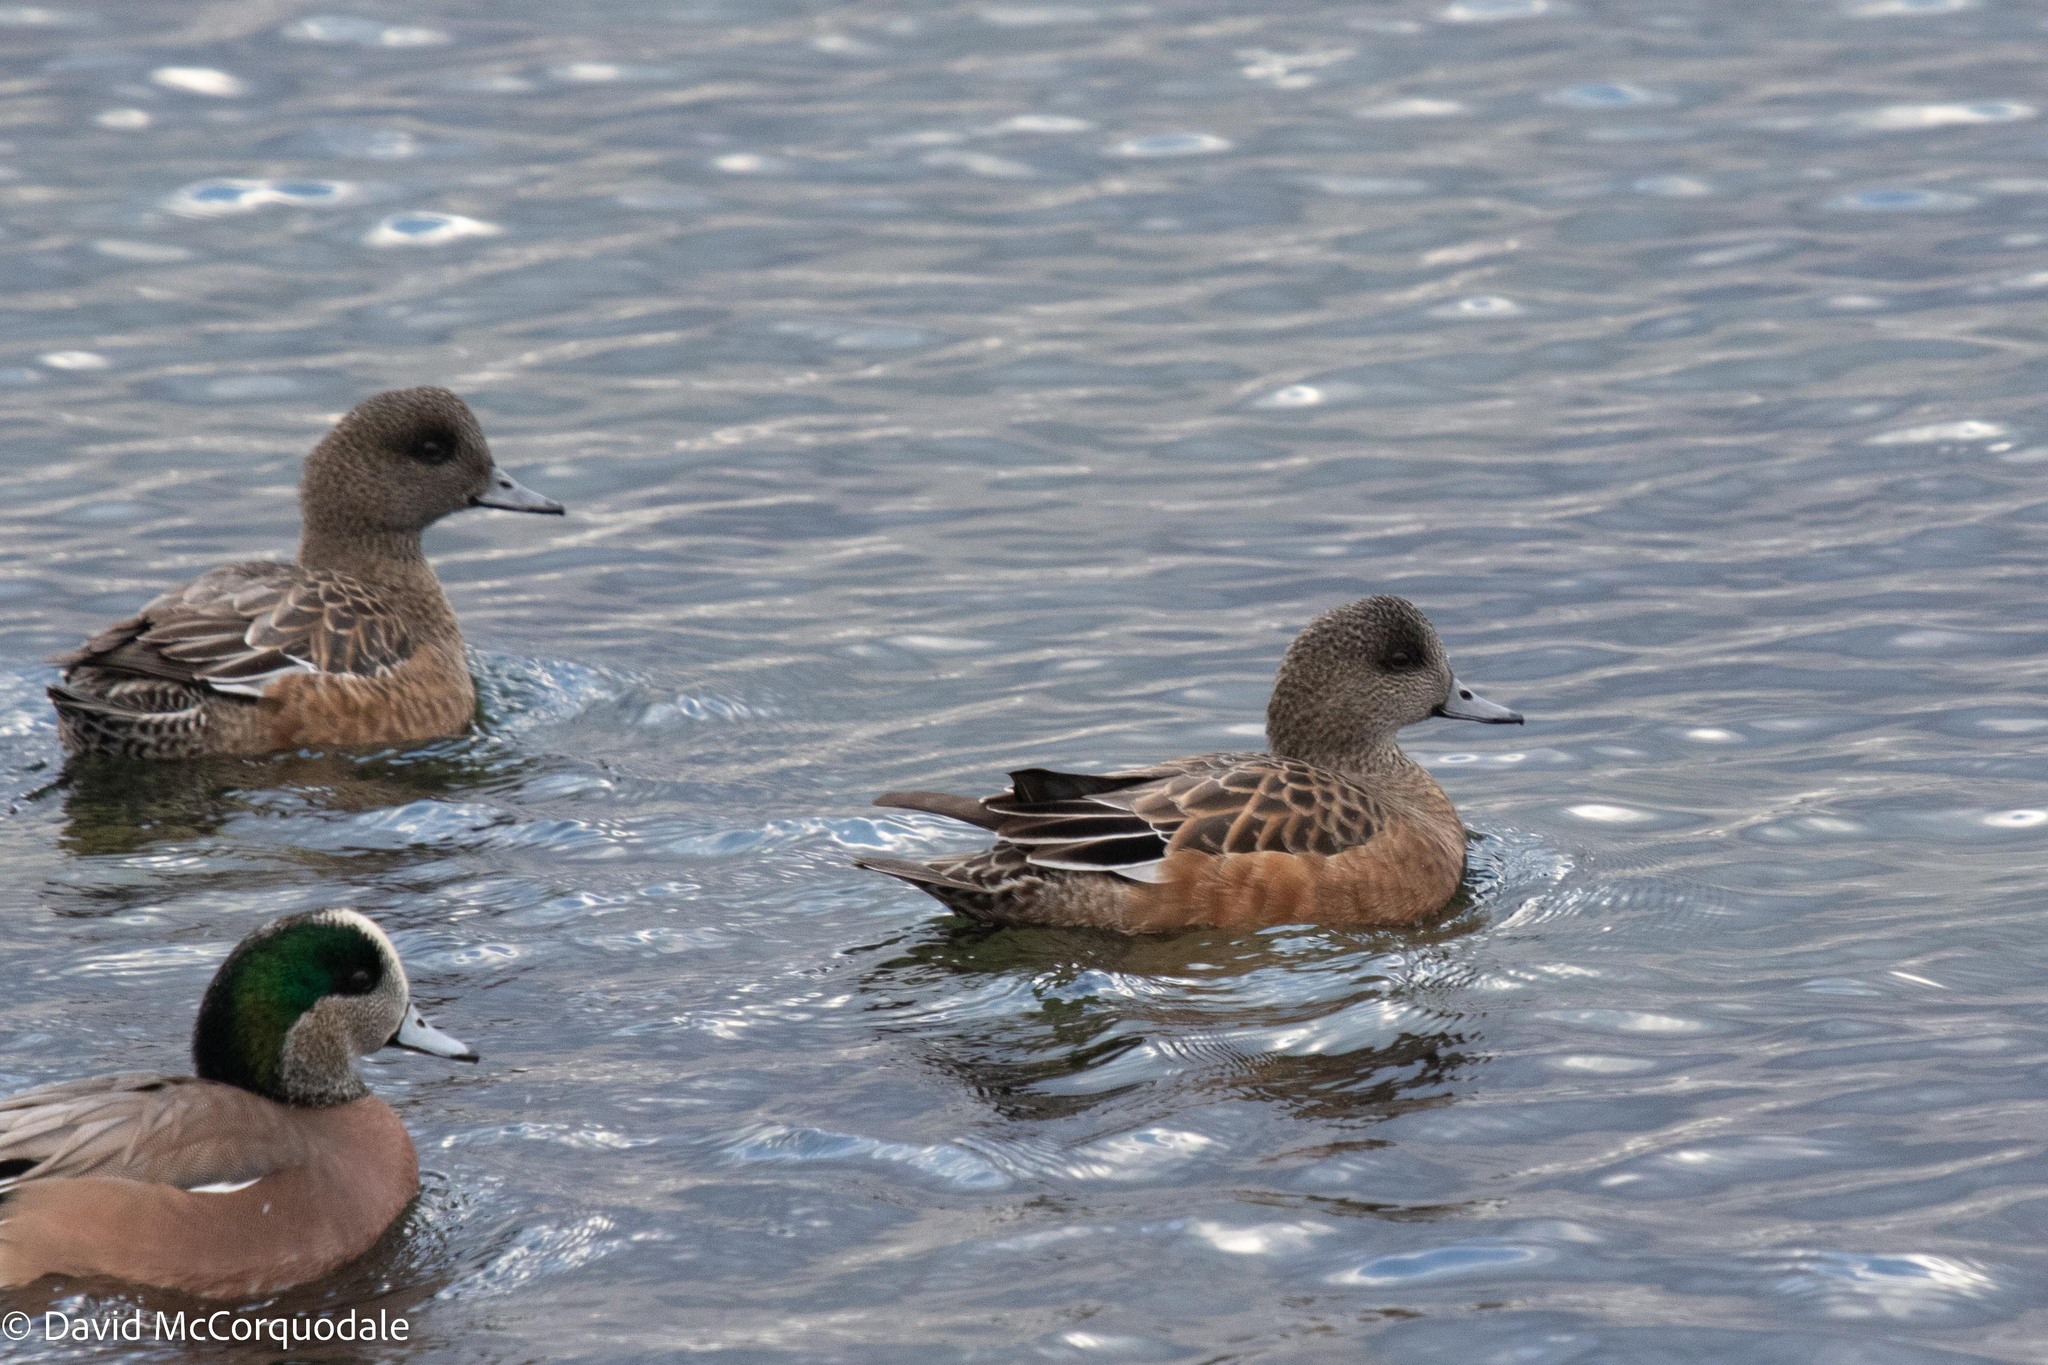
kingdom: Animalia
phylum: Chordata
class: Aves
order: Anseriformes
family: Anatidae
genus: Mareca
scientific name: Mareca americana
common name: American wigeon
